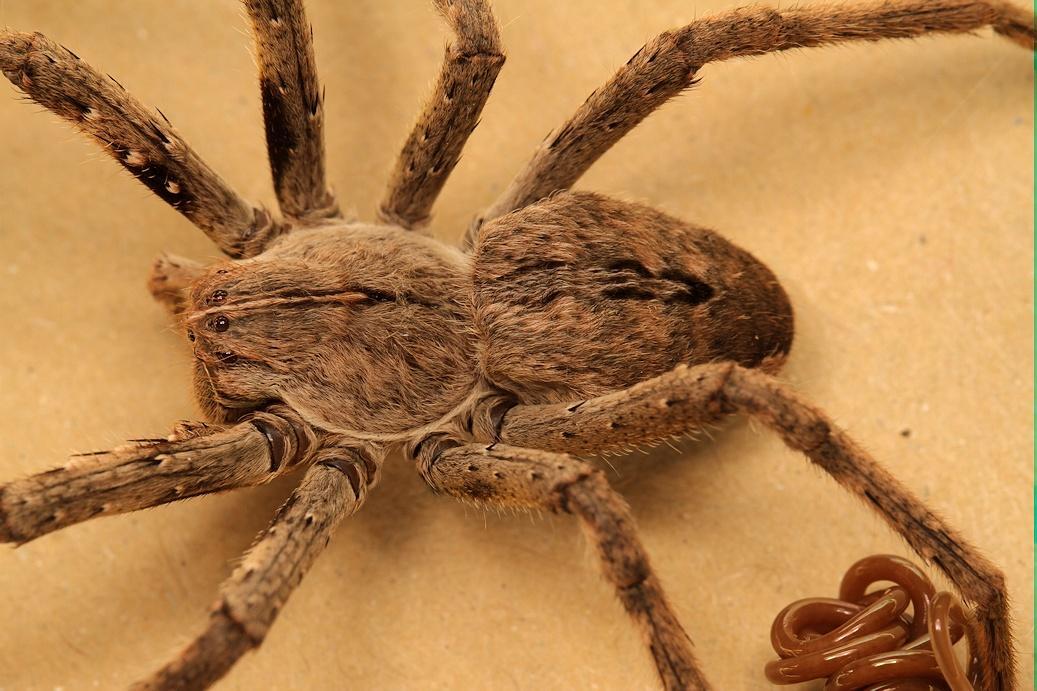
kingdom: Animalia
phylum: Arthropoda
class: Arachnida
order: Araneae
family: Sparassidae
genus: Palystes
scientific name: Palystes superciliosus
